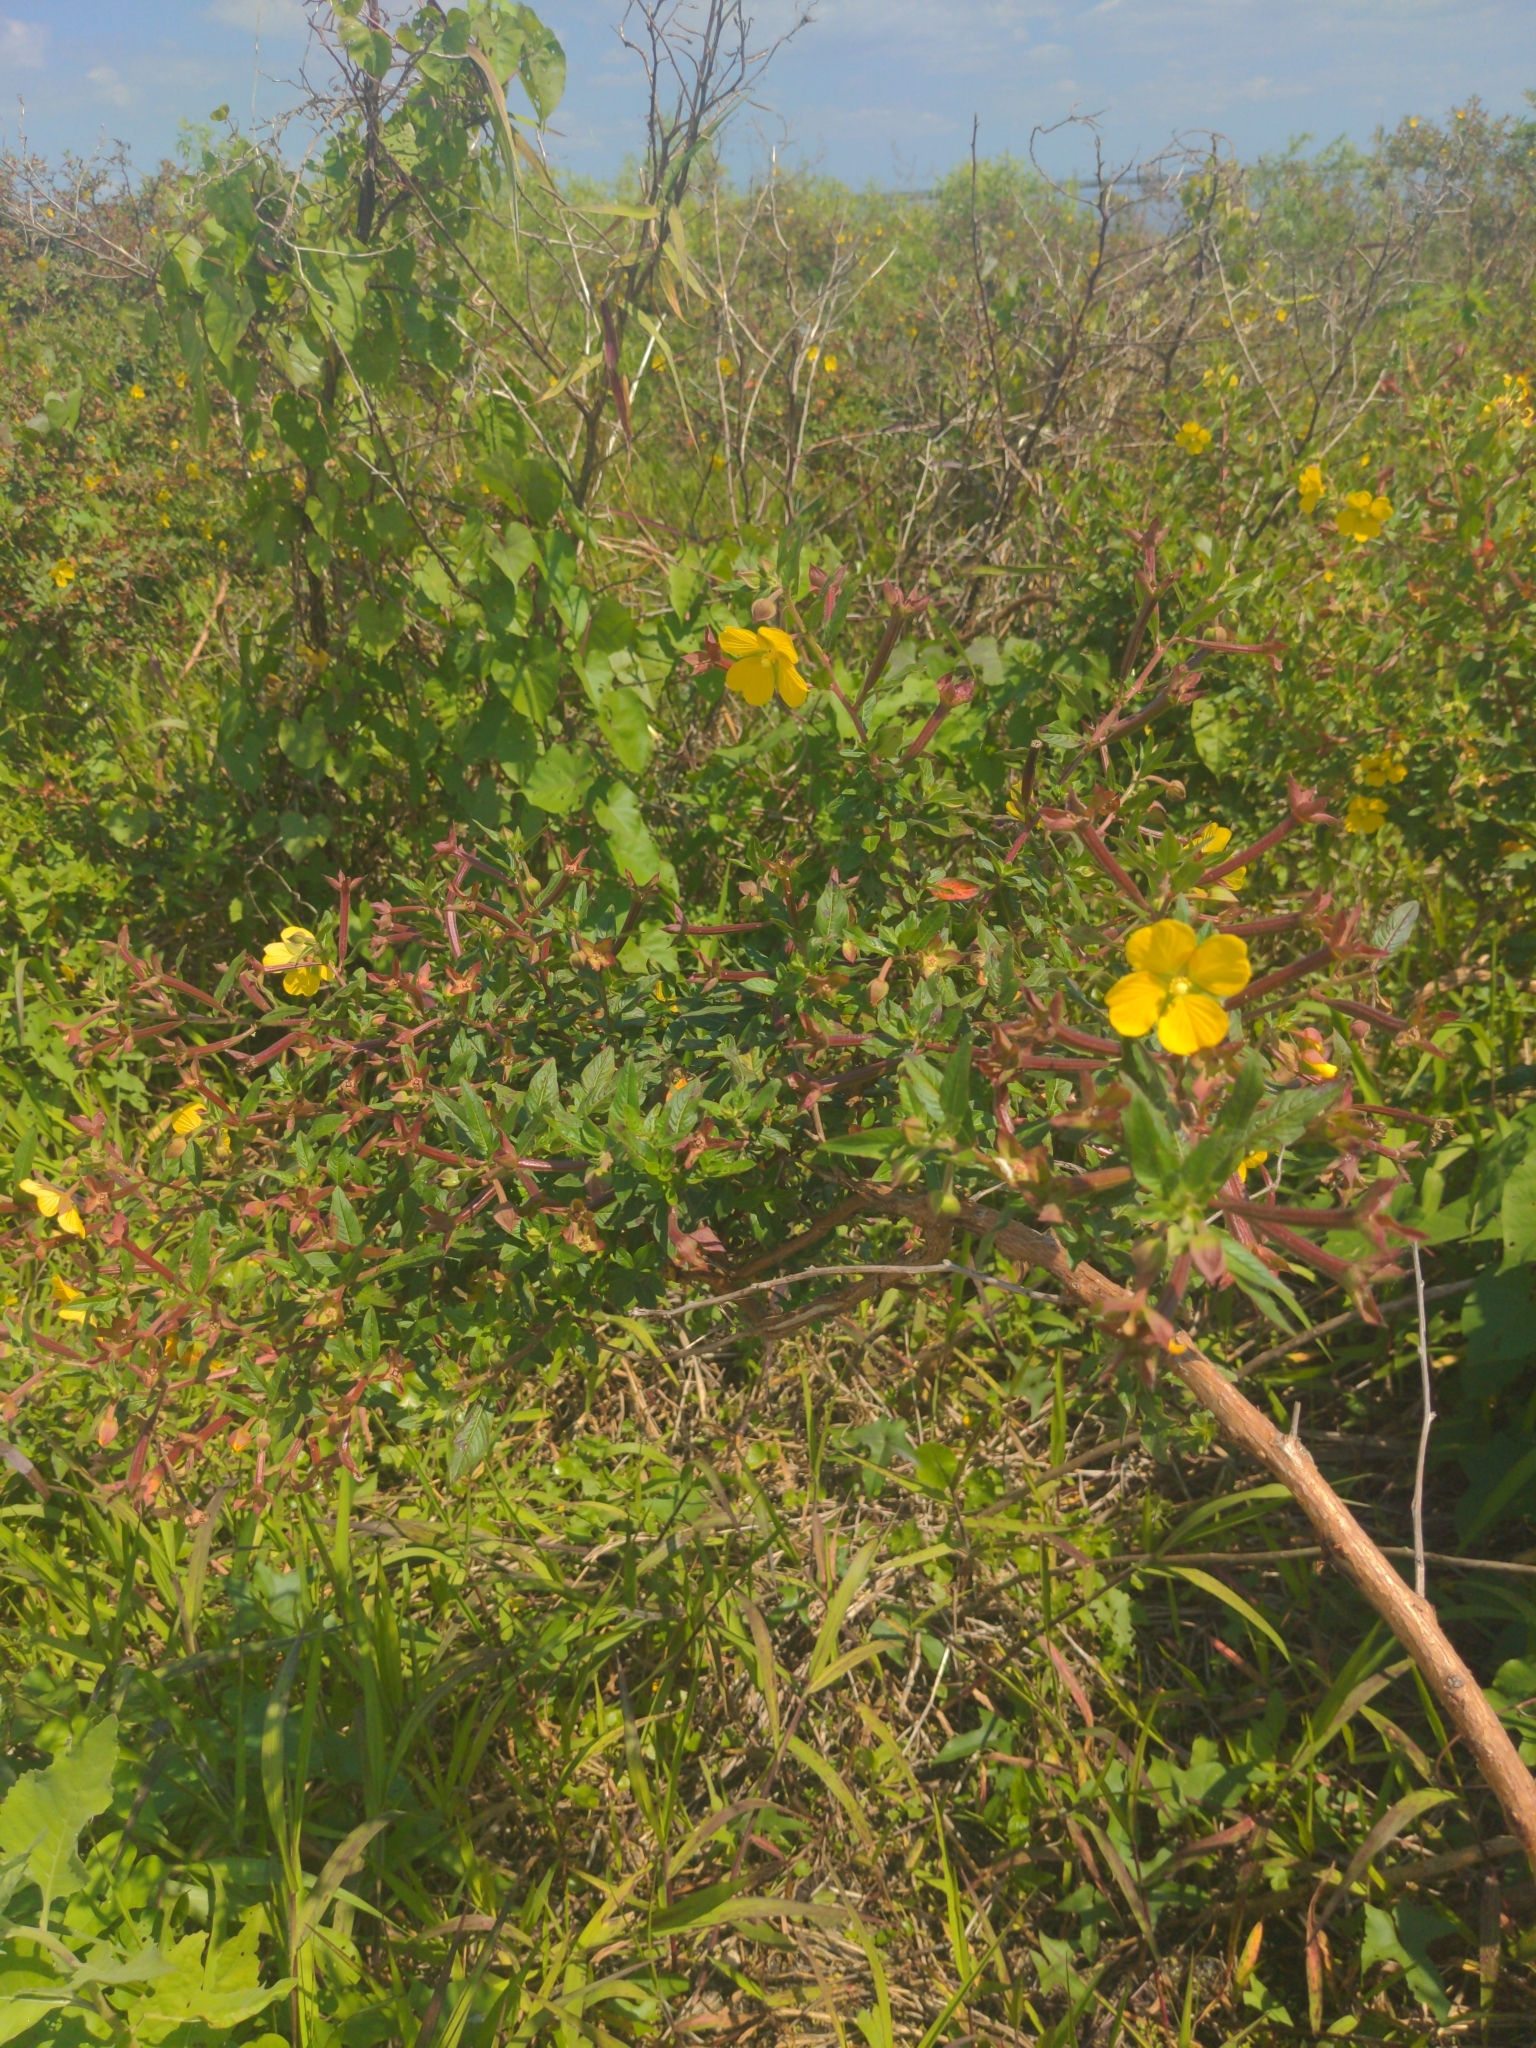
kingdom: Plantae
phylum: Tracheophyta
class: Magnoliopsida
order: Myrtales
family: Onagraceae
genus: Ludwigia
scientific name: Ludwigia octovalvis
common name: Water-primrose
